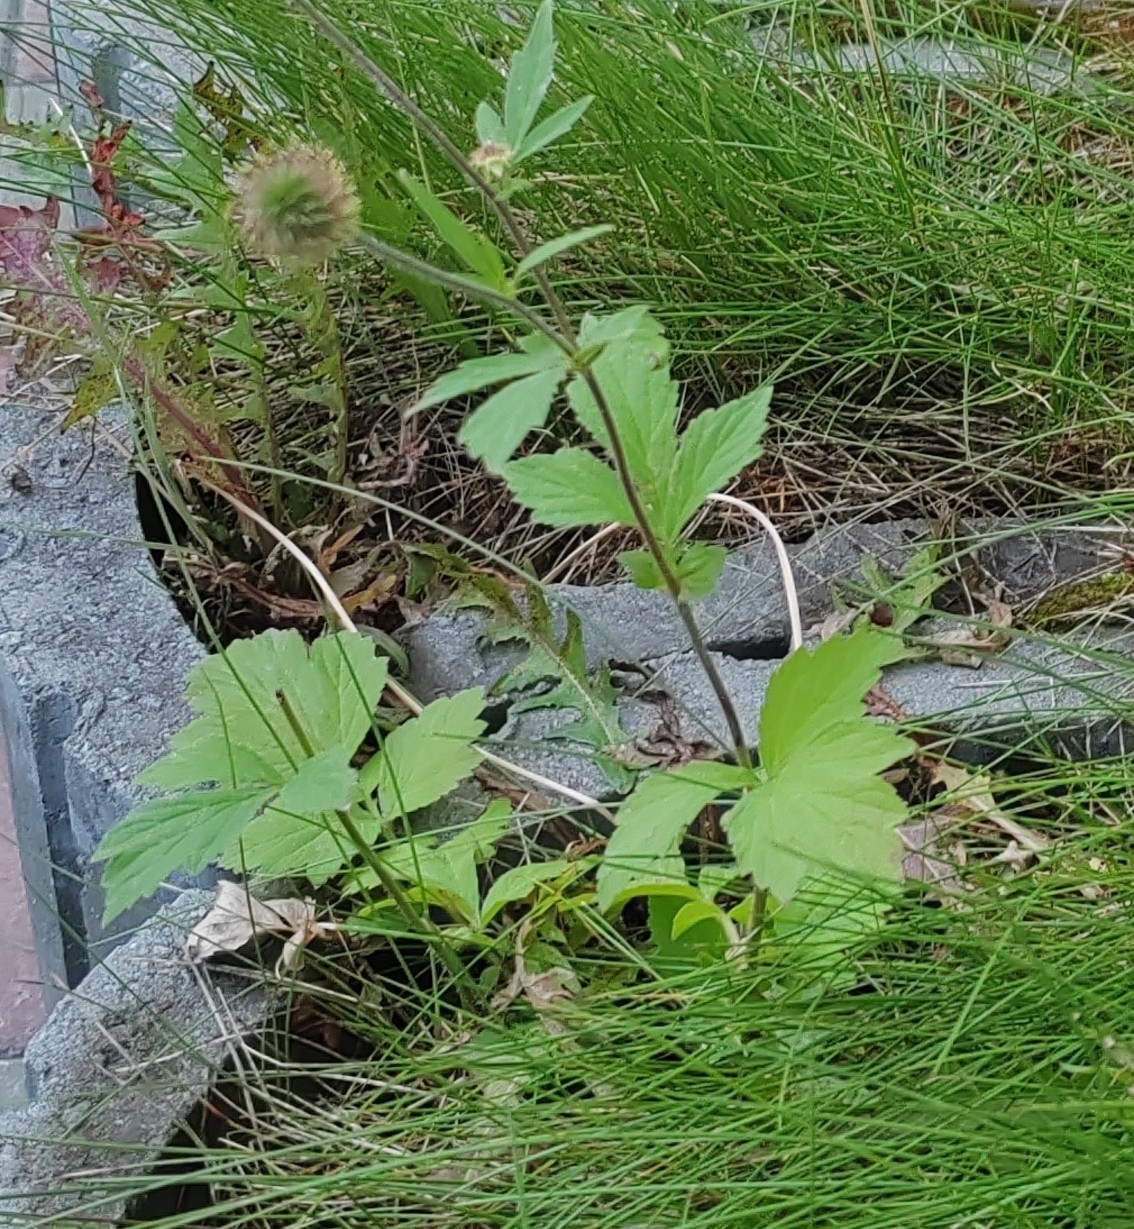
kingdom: Plantae
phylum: Tracheophyta
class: Magnoliopsida
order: Rosales
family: Rosaceae
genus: Geum
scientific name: Geum aleppicum
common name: Yellow avens
